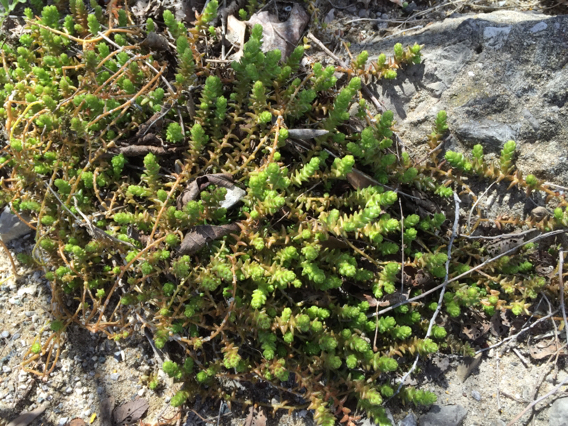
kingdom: Plantae
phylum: Tracheophyta
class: Magnoliopsida
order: Saxifragales
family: Crassulaceae
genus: Sedum
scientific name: Sedum acre
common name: Biting stonecrop
